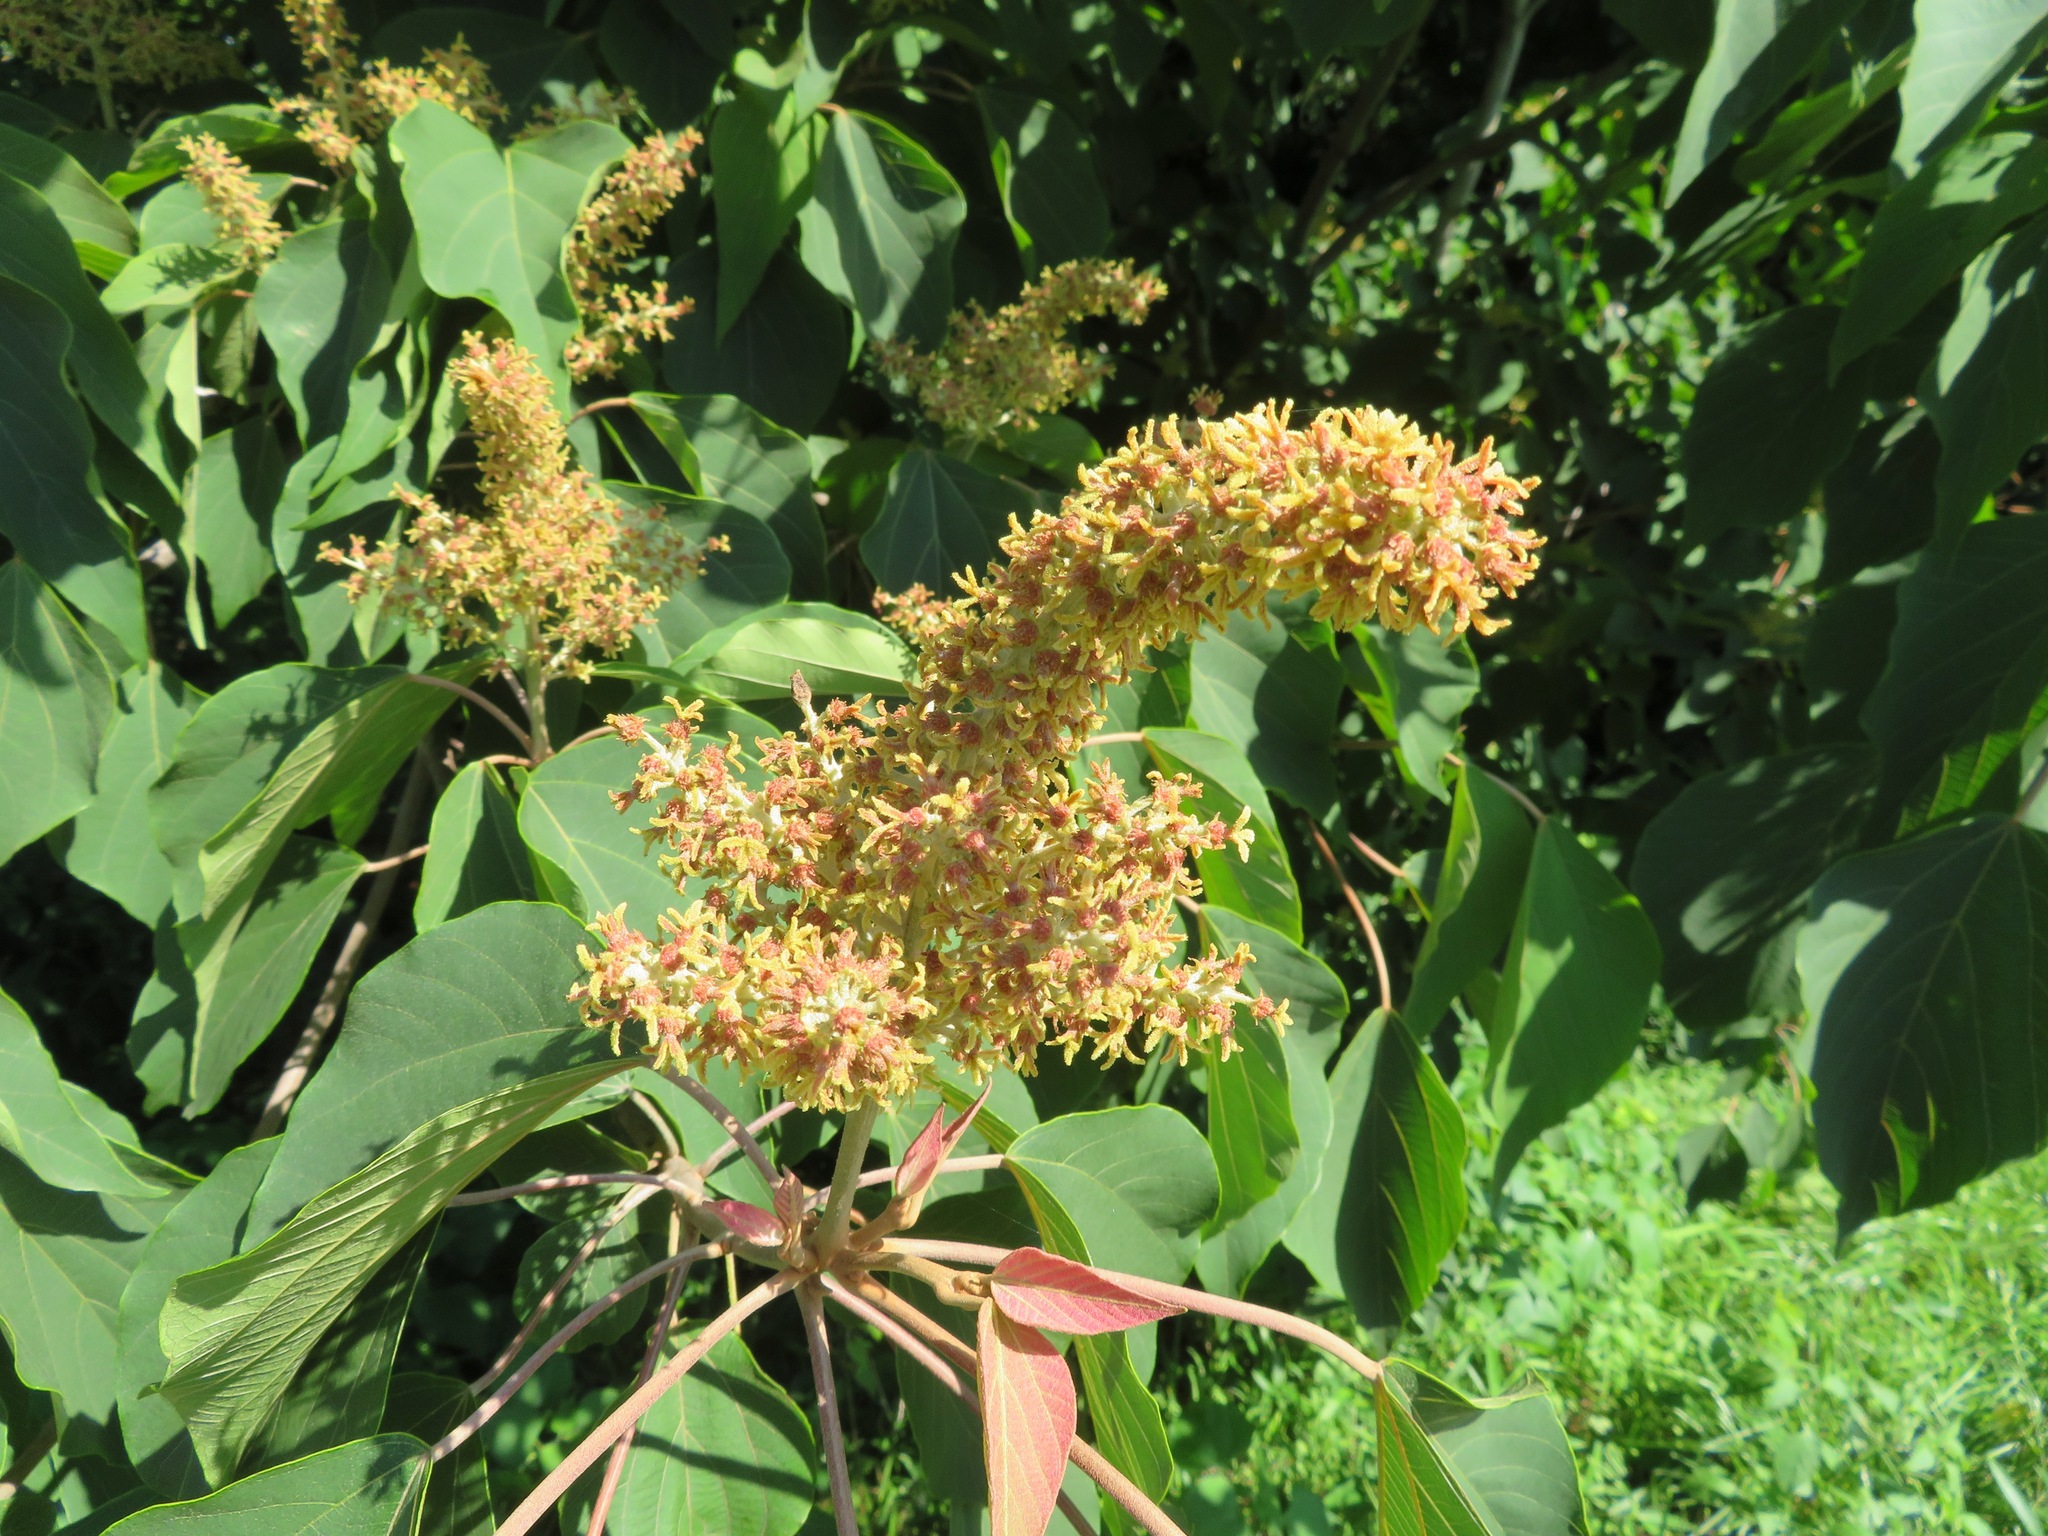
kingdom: Plantae
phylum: Tracheophyta
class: Magnoliopsida
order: Malpighiales
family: Euphorbiaceae
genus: Mallotus
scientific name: Mallotus japonicus
